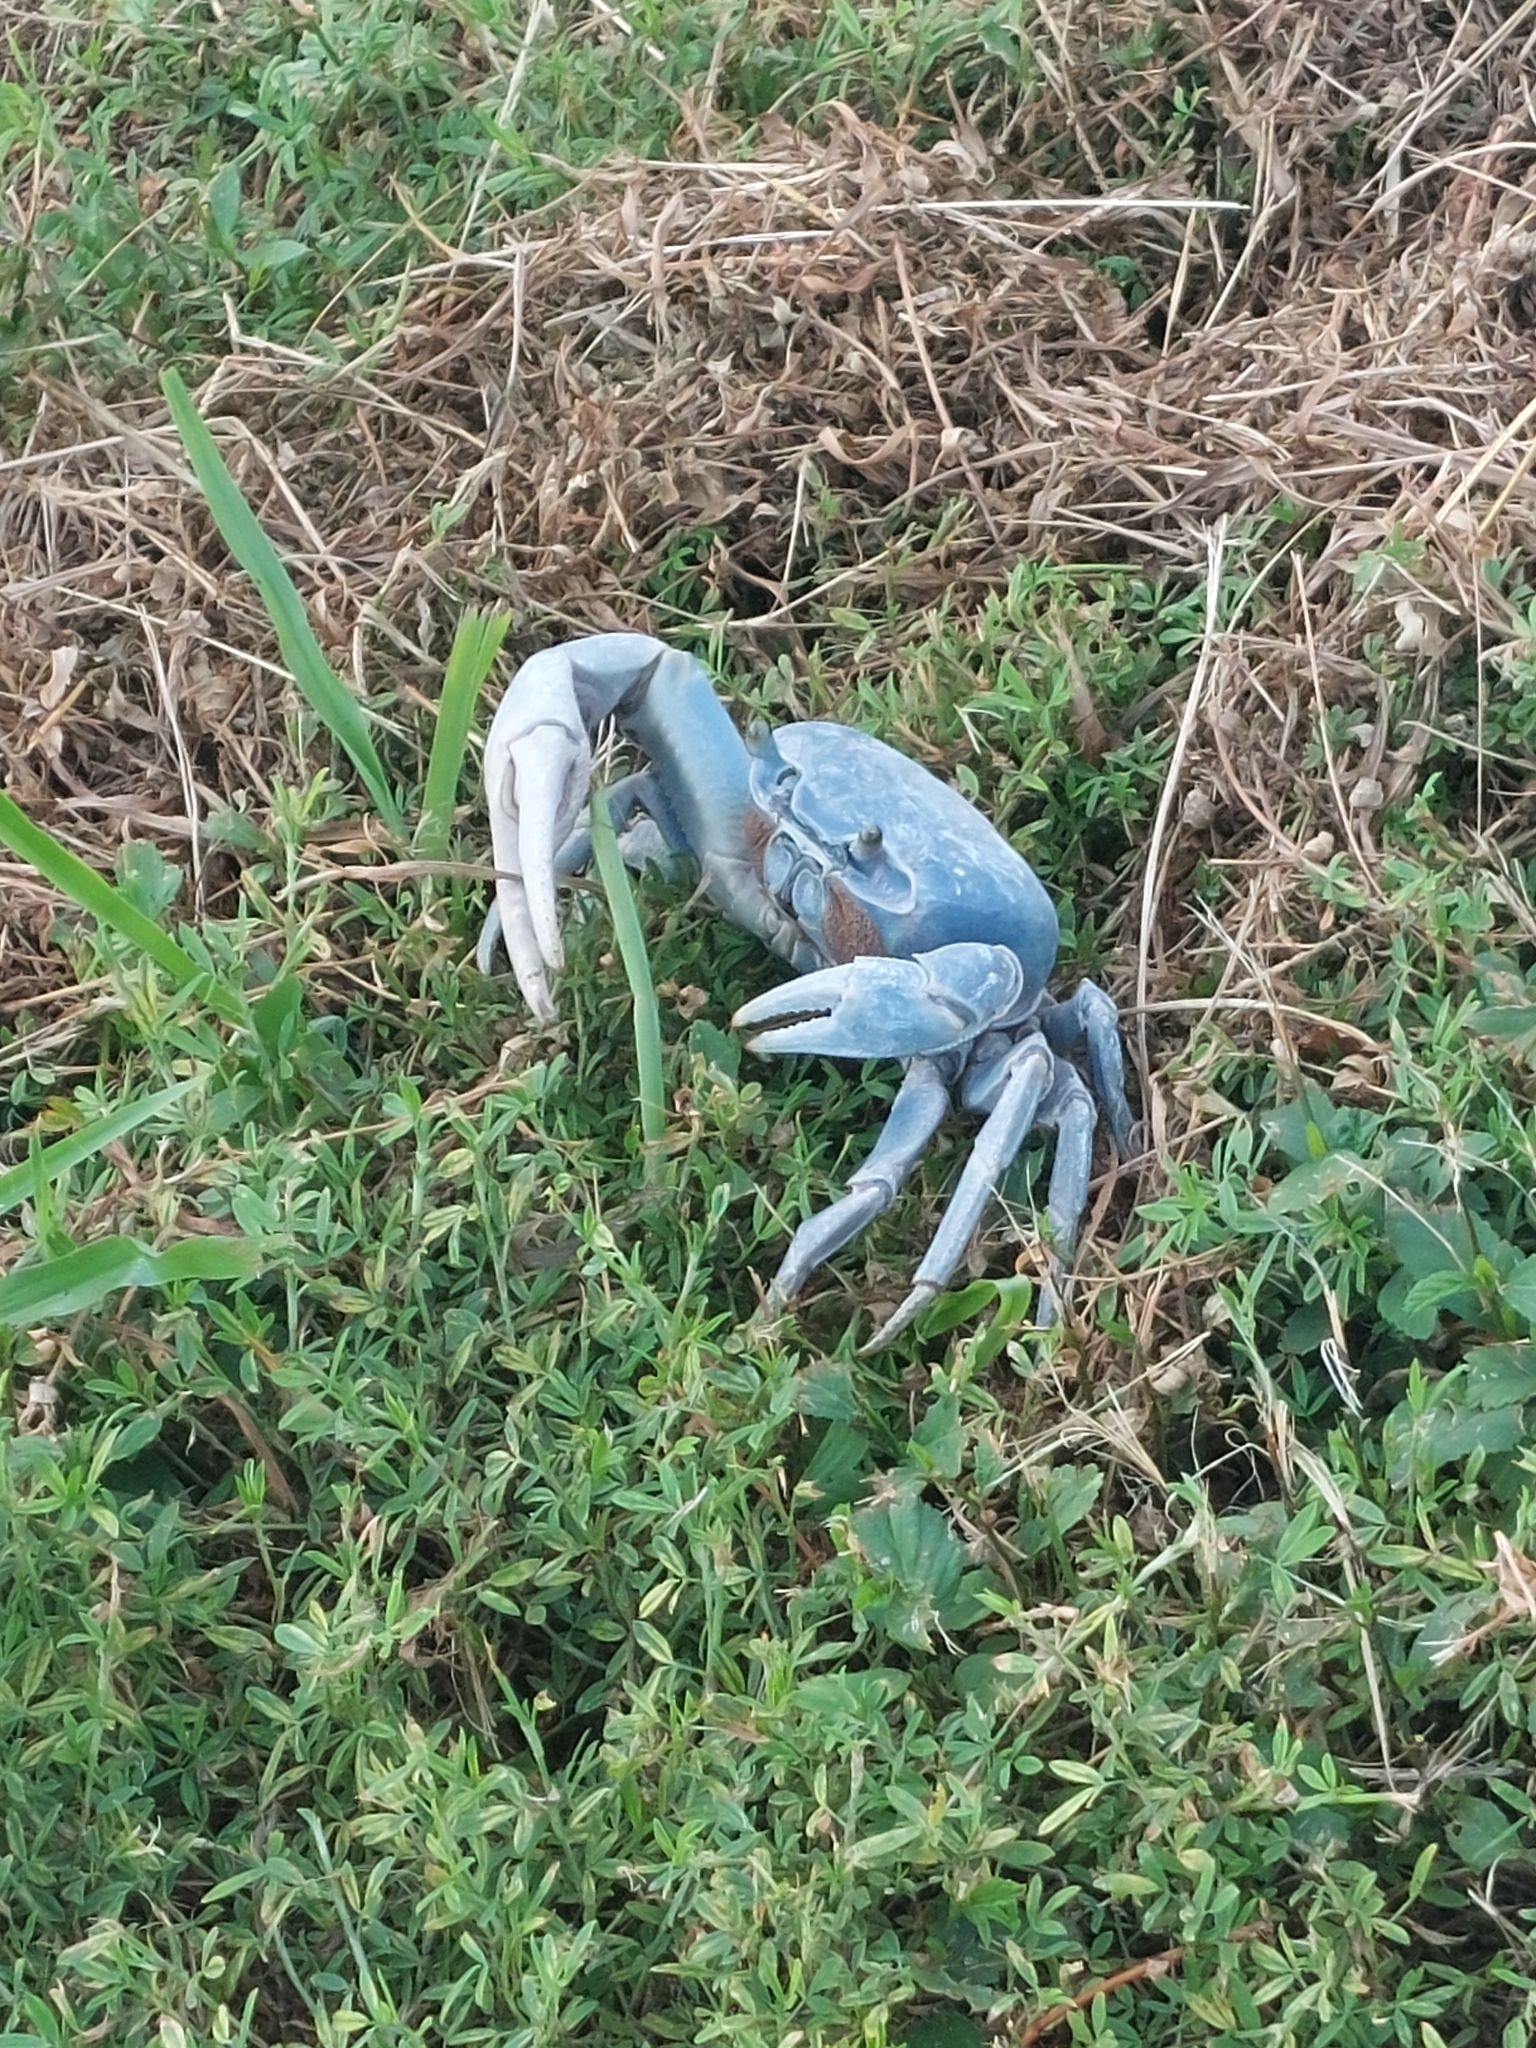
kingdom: Animalia
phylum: Arthropoda
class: Malacostraca
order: Decapoda
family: Gecarcinidae
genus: Cardisoma
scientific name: Cardisoma guanhumi
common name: Great land crab
